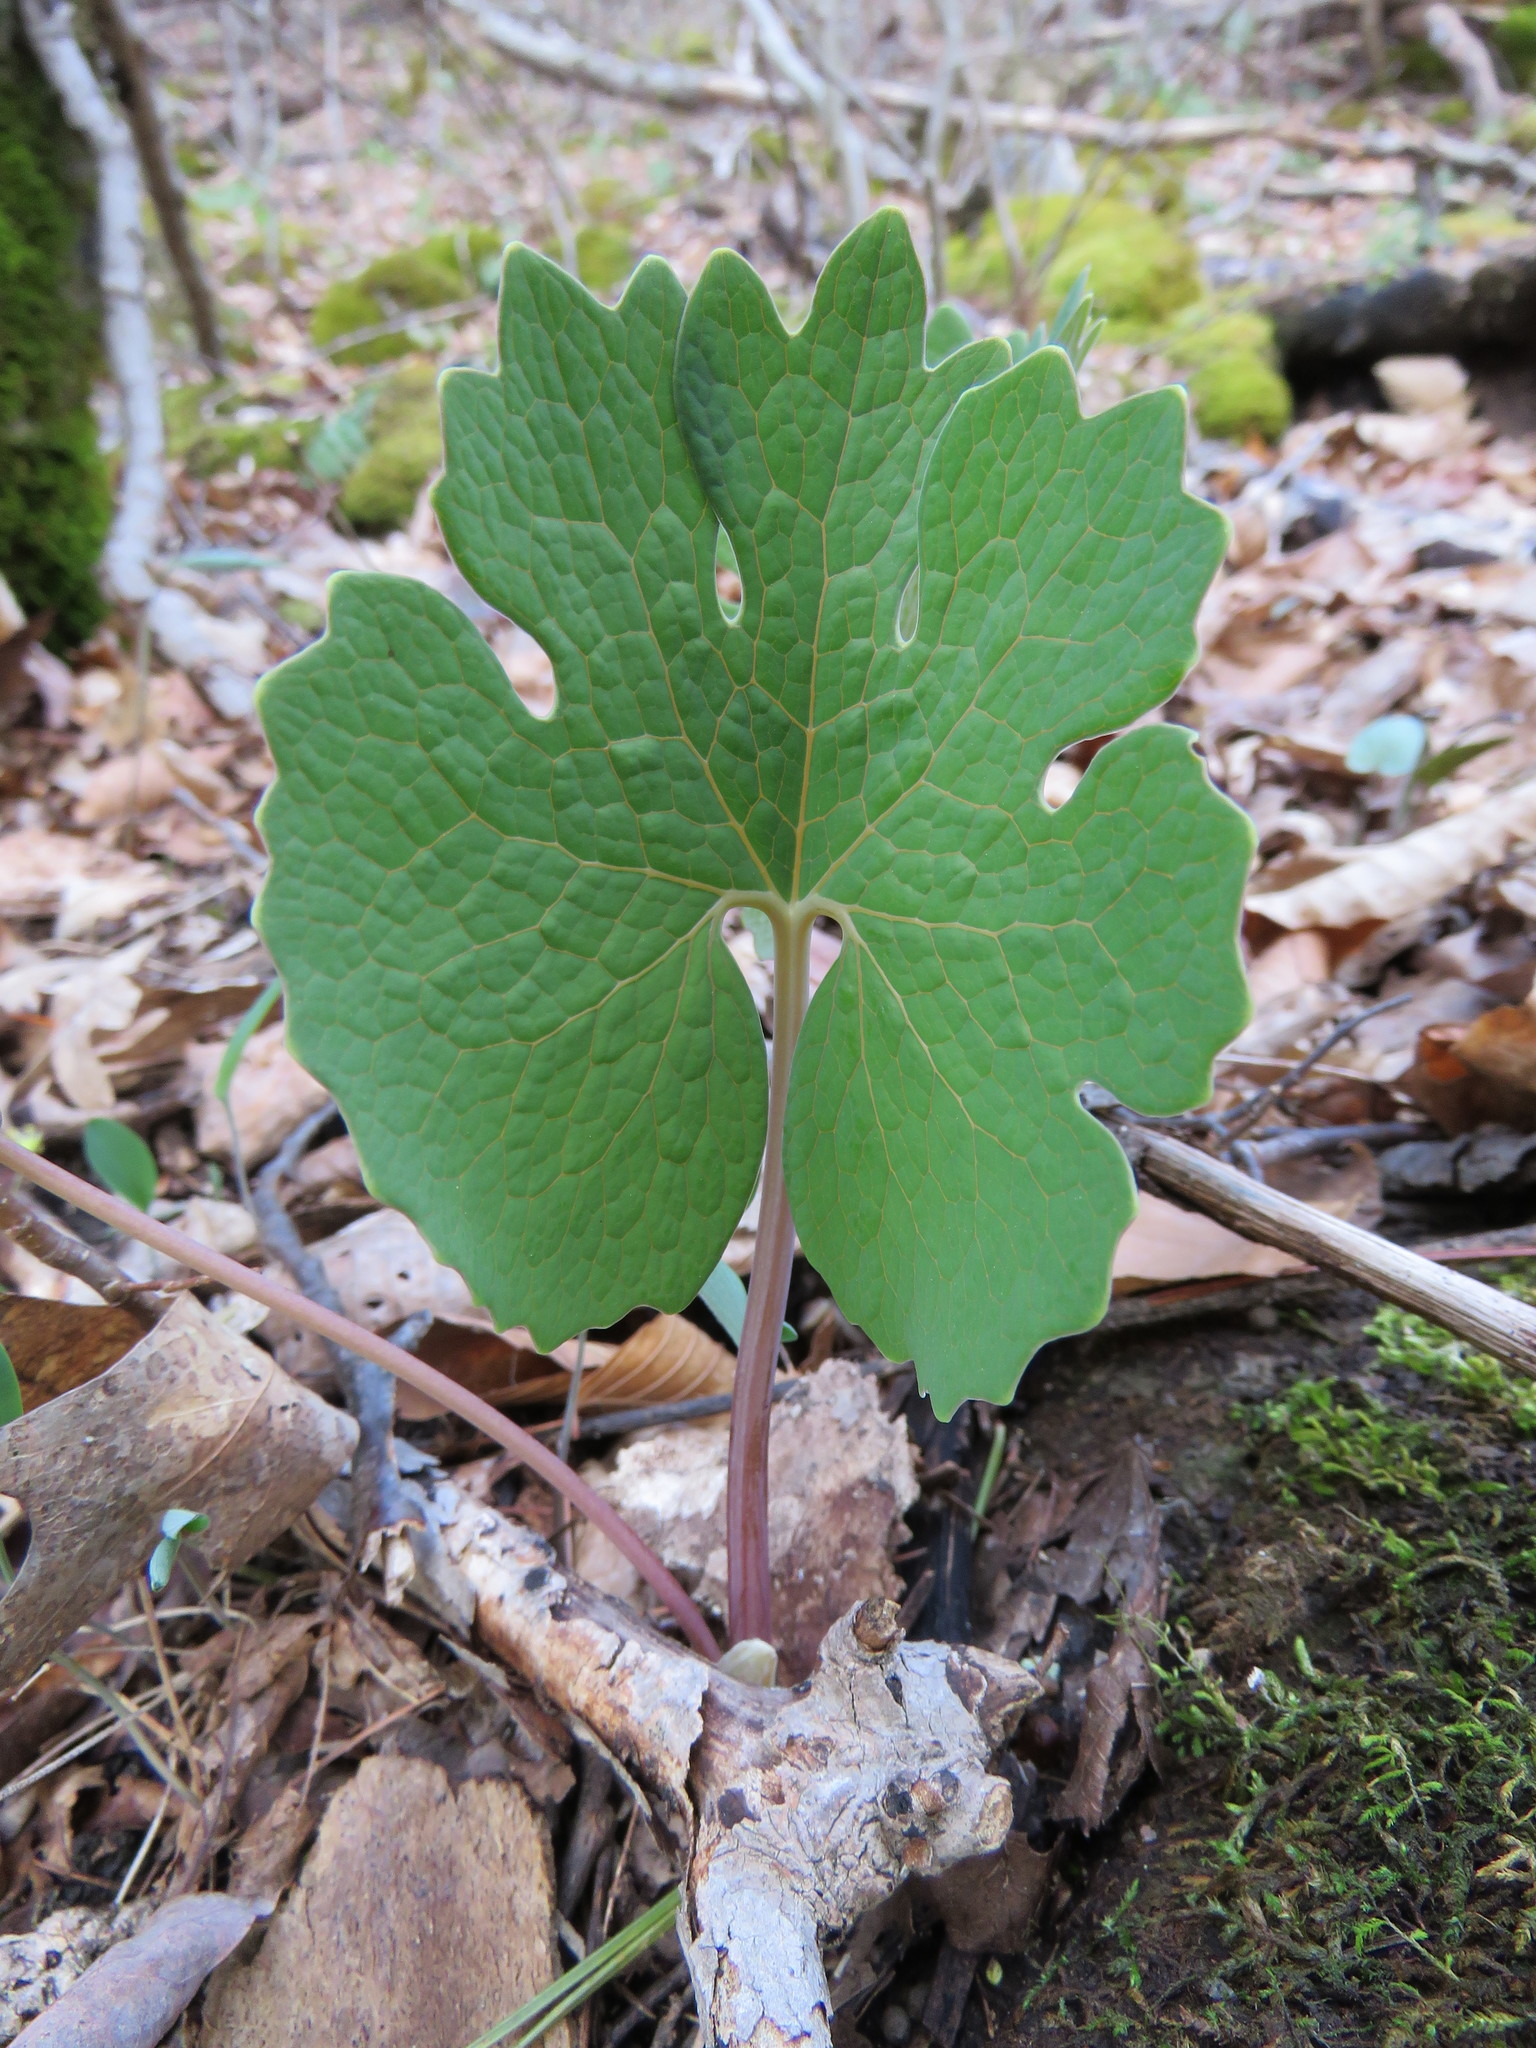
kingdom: Plantae
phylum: Tracheophyta
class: Magnoliopsida
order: Ranunculales
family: Papaveraceae
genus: Sanguinaria
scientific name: Sanguinaria canadensis
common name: Bloodroot
